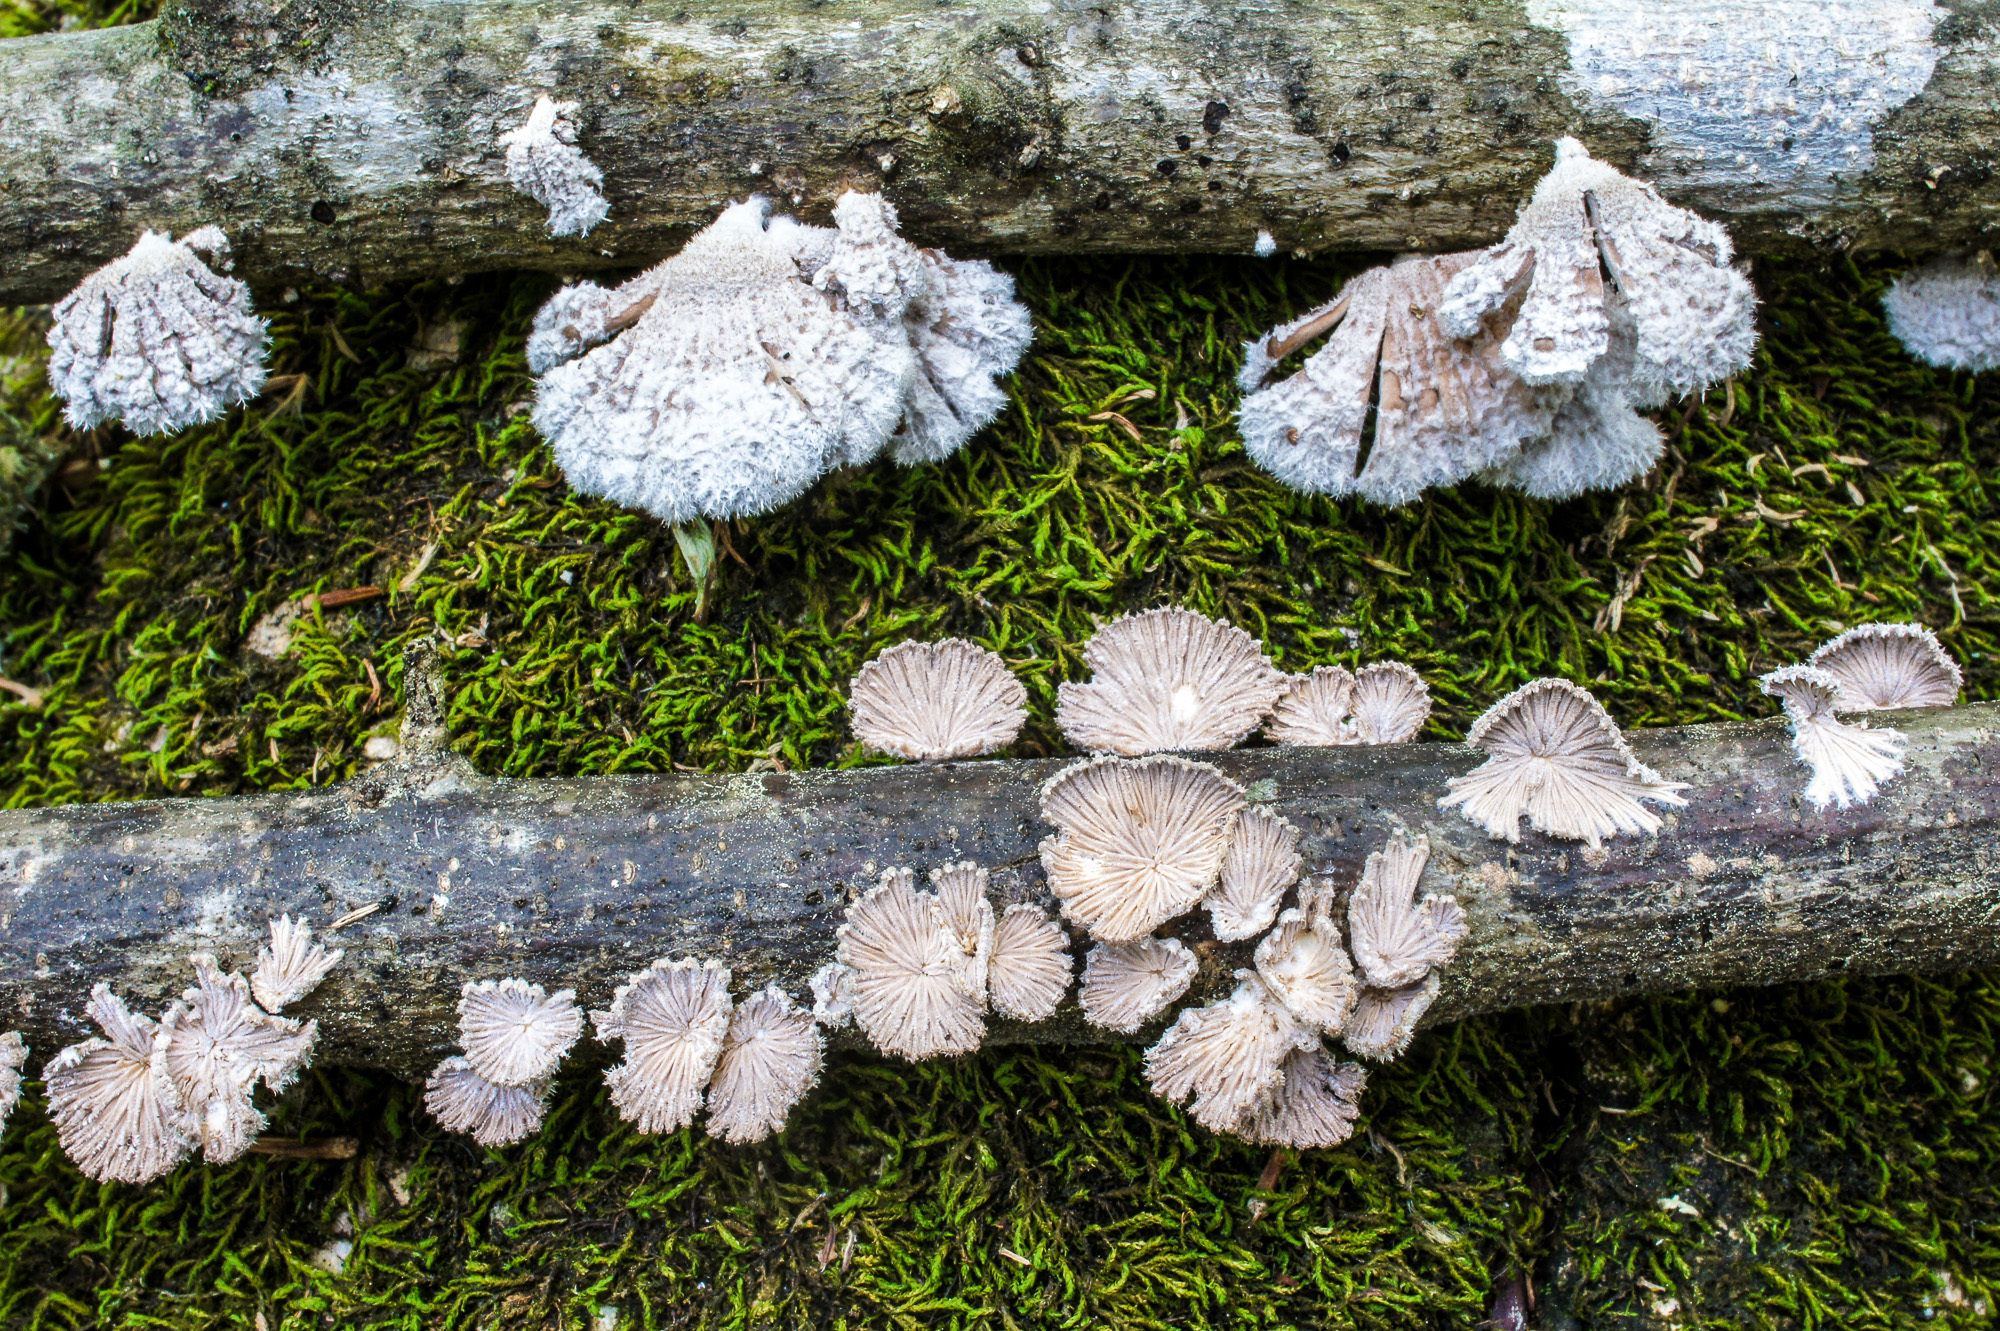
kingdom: Fungi
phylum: Basidiomycota
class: Agaricomycetes
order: Agaricales
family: Schizophyllaceae
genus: Schizophyllum
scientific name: Schizophyllum commune
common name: Common porecrust
